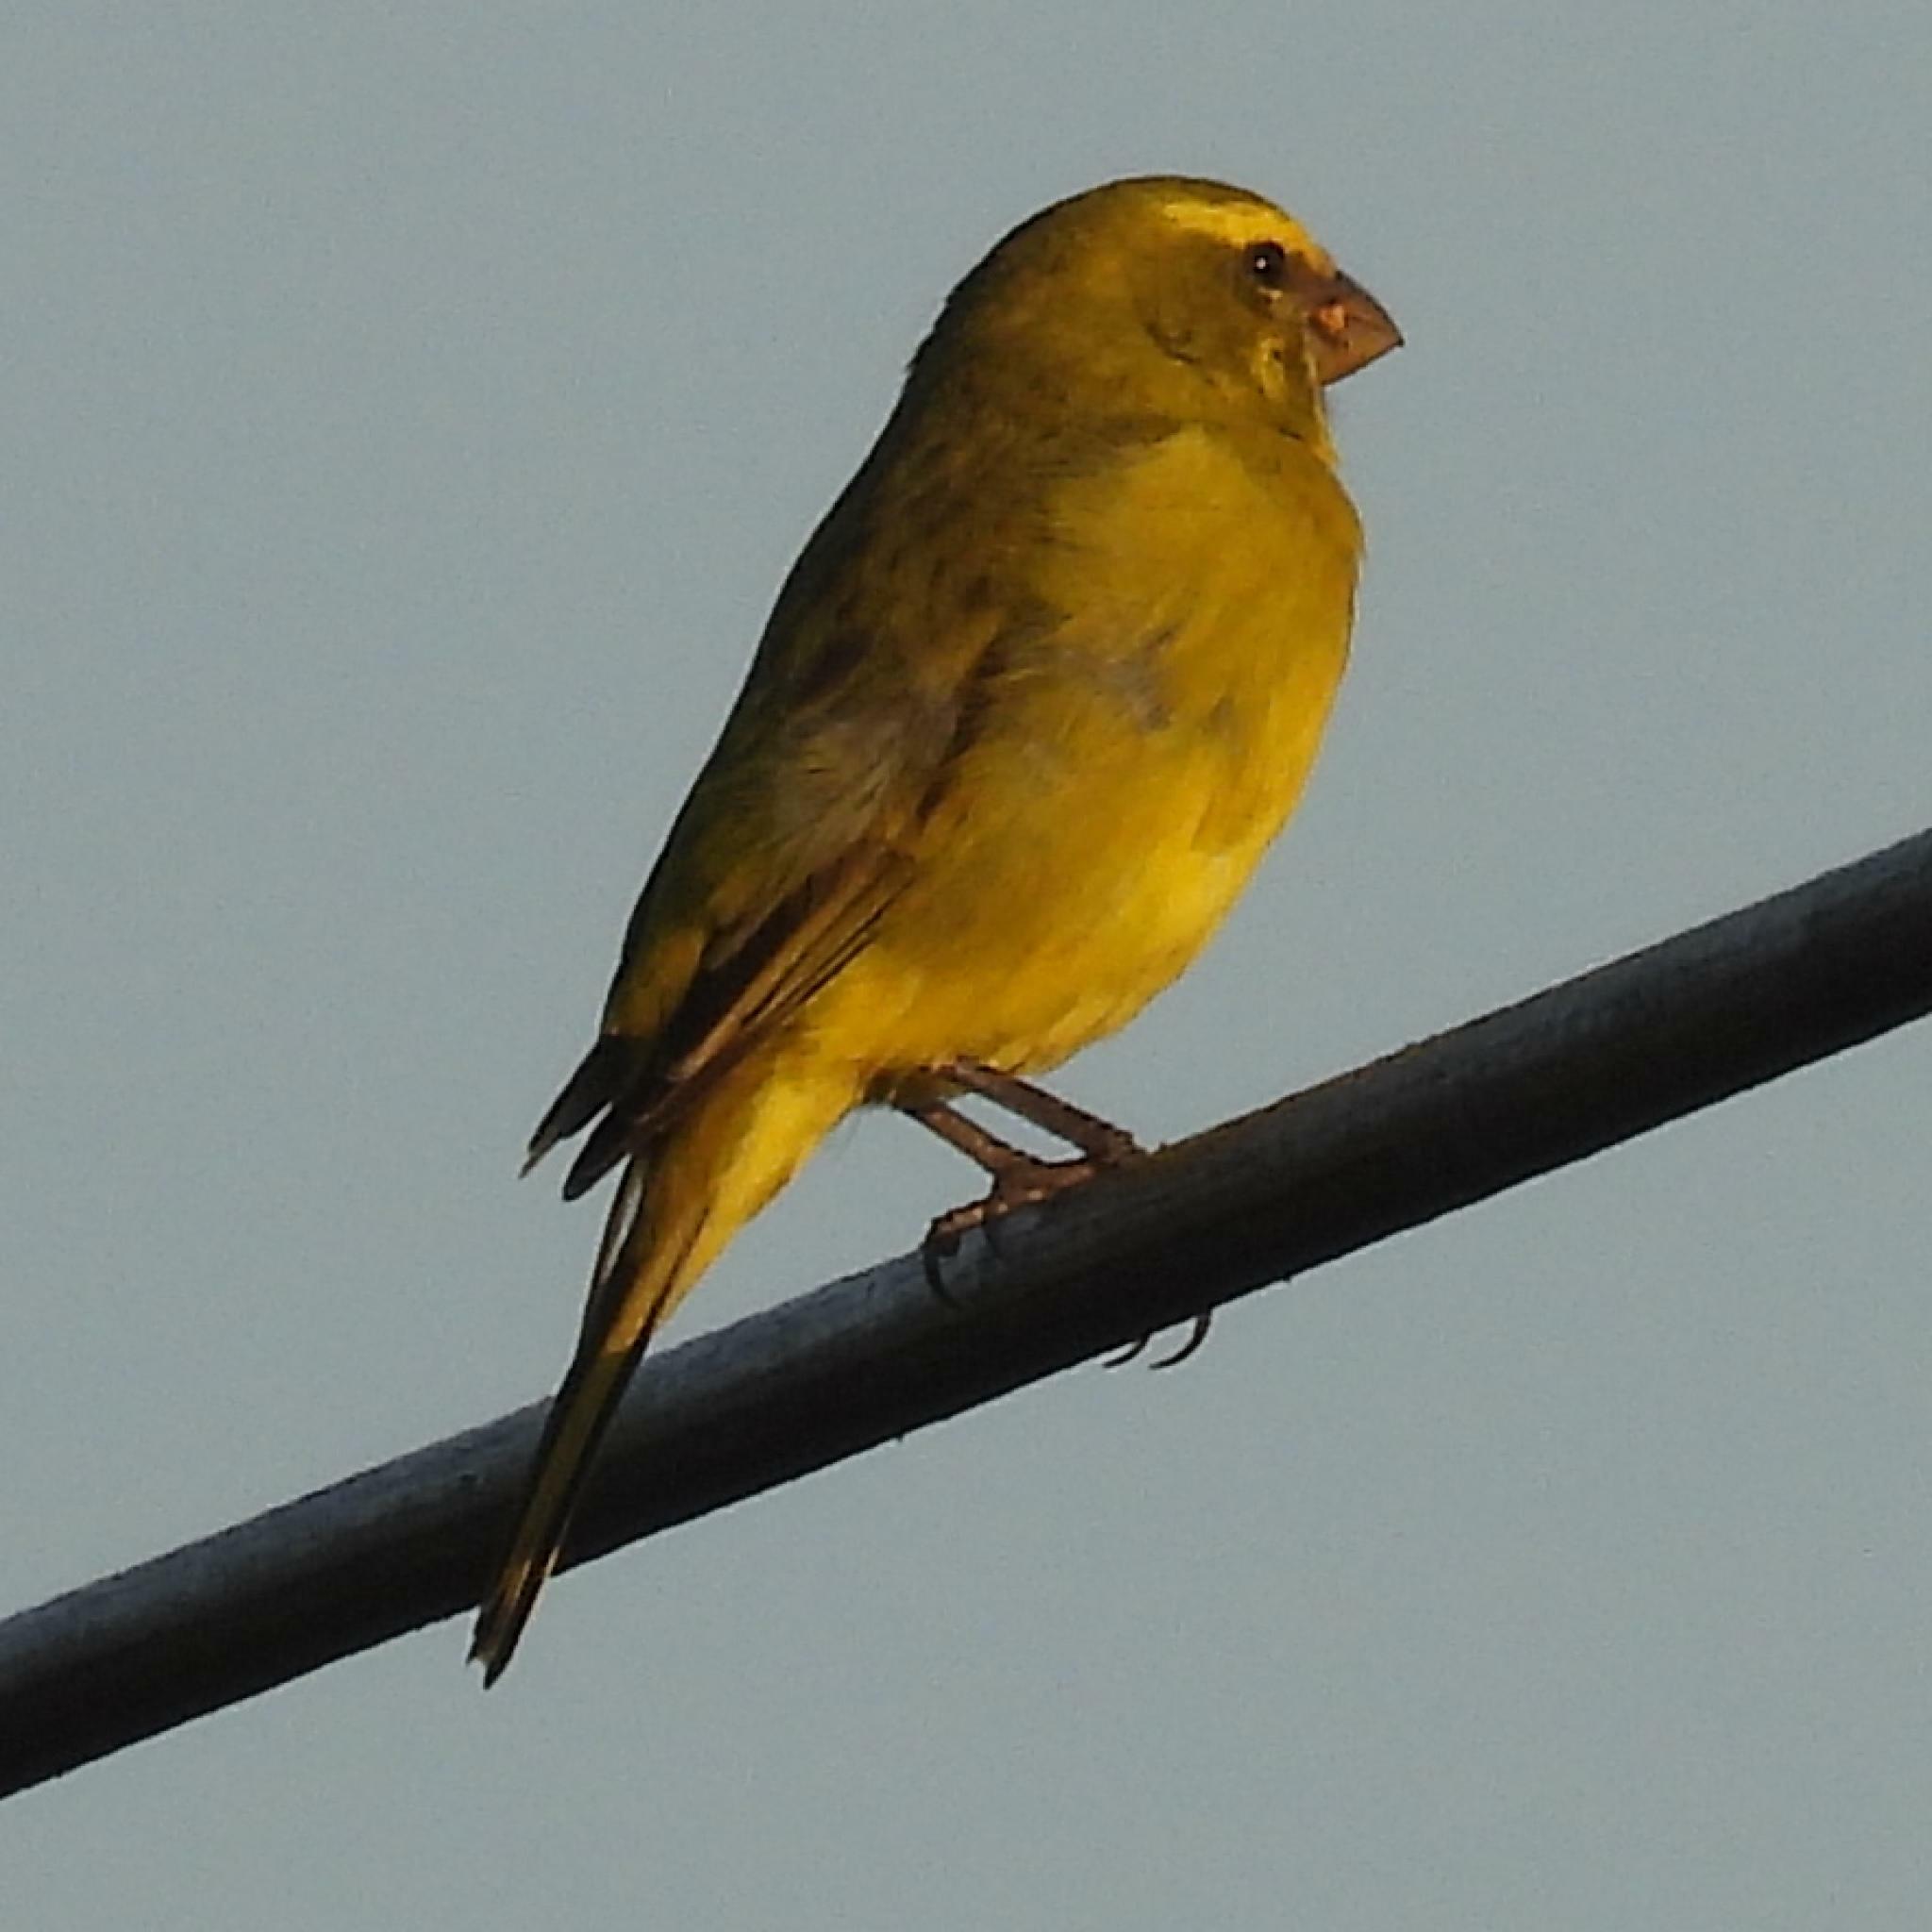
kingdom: Animalia
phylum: Chordata
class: Aves
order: Passeriformes
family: Fringillidae
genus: Crithagra
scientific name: Crithagra sulphurata
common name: Brimstone canary
